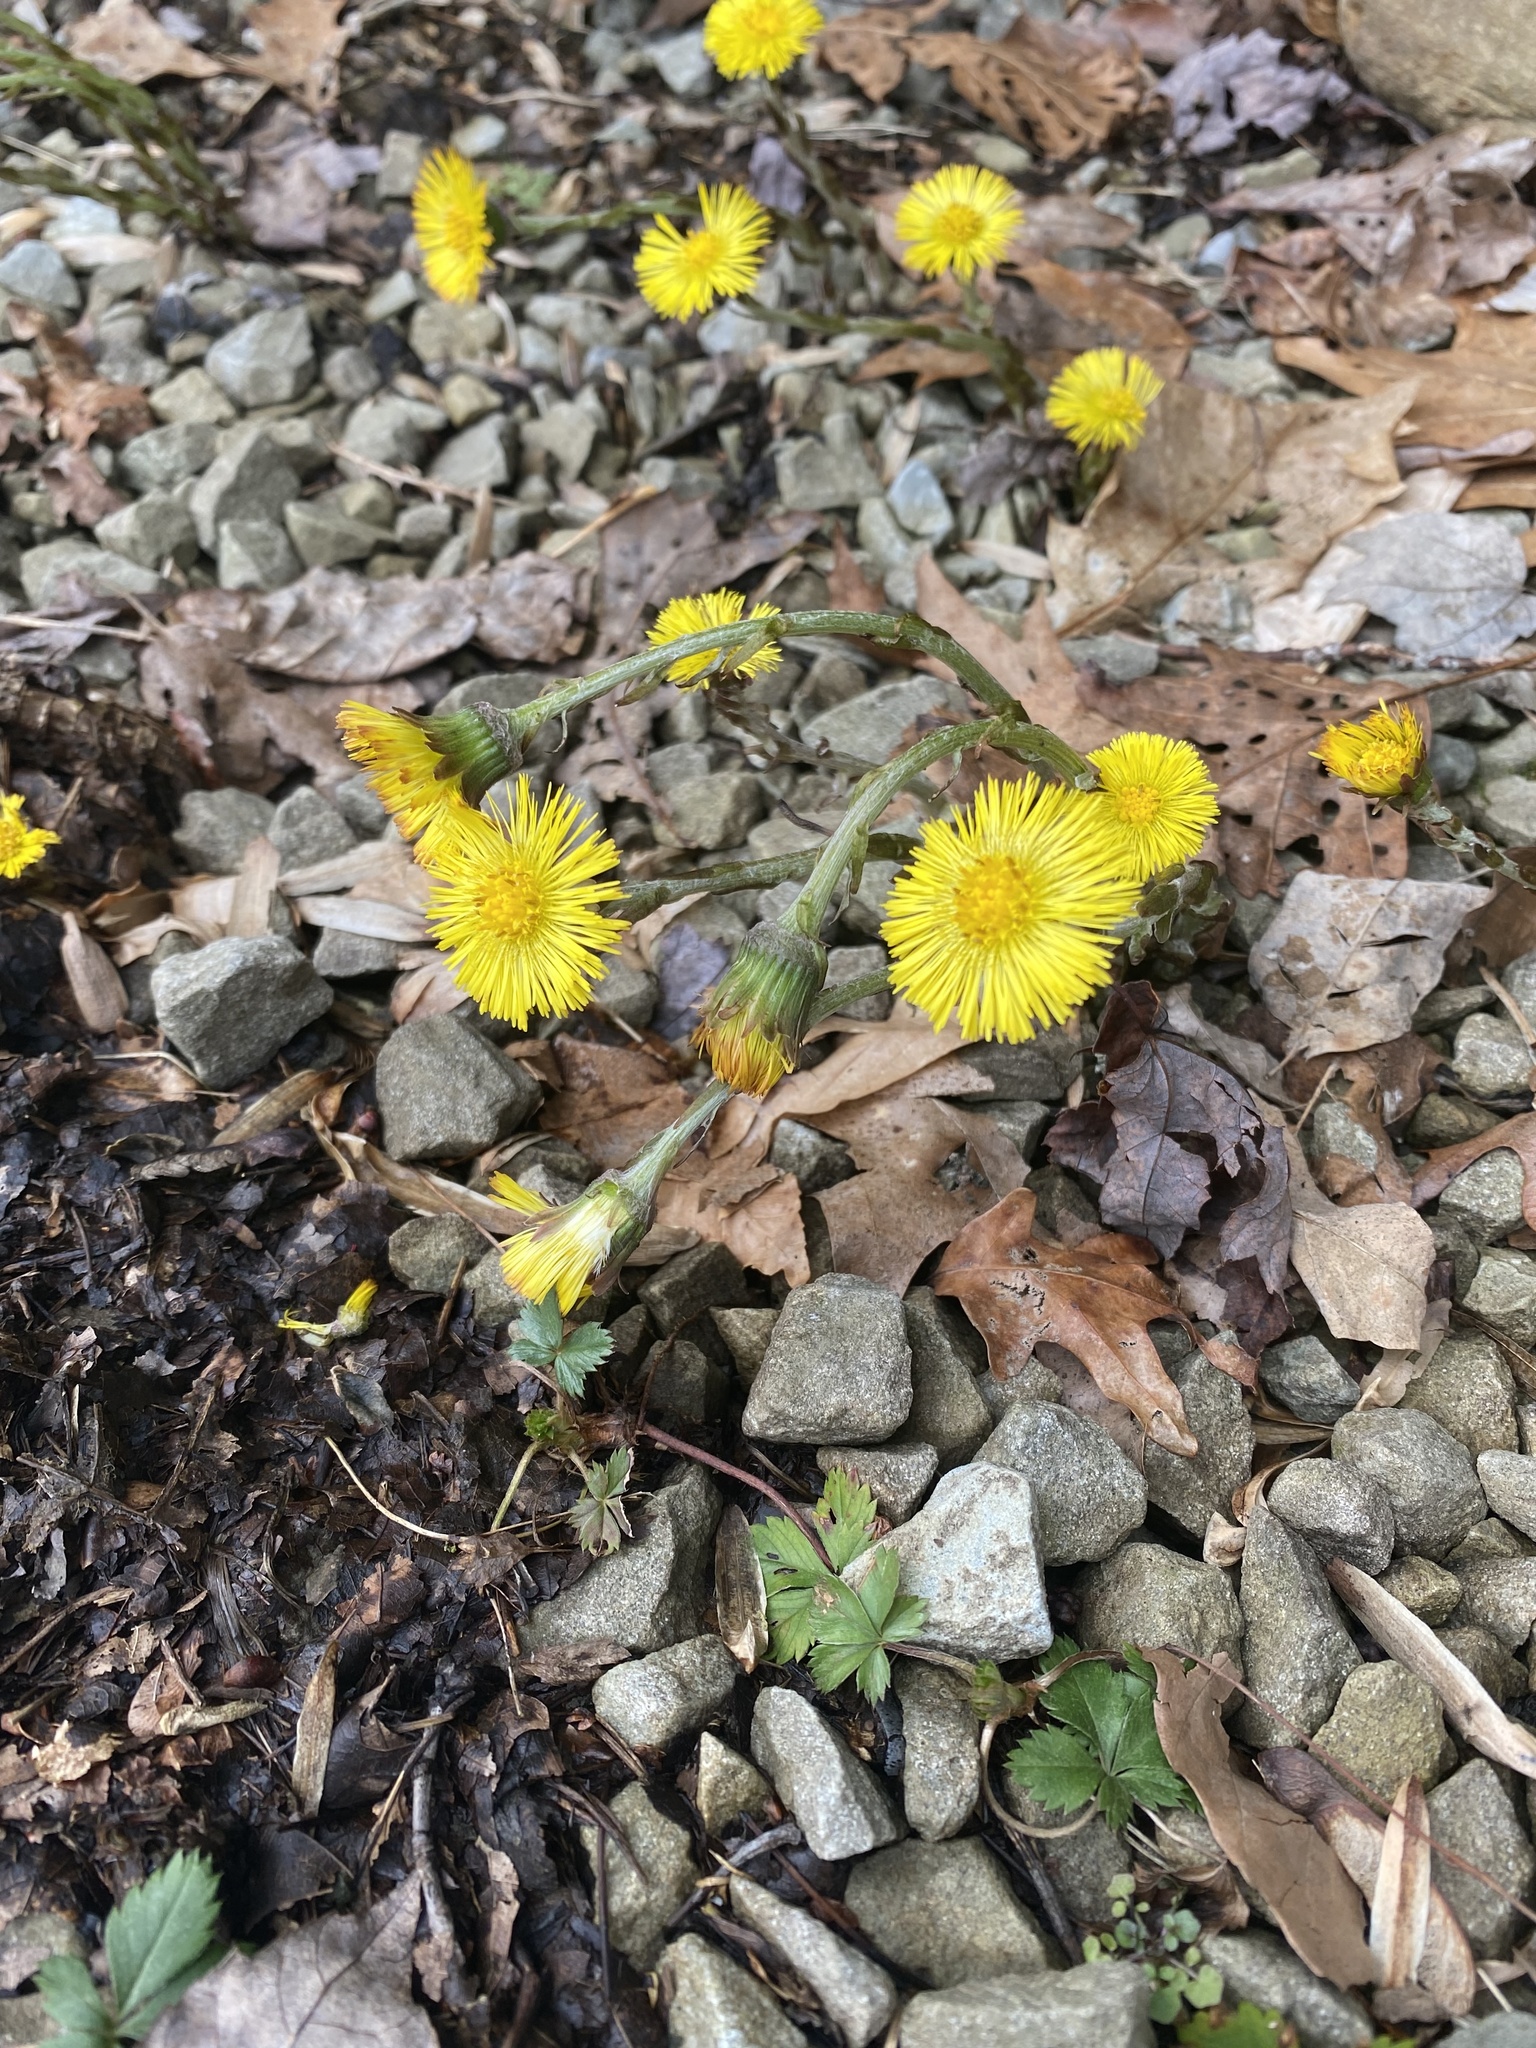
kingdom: Plantae
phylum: Tracheophyta
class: Magnoliopsida
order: Asterales
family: Asteraceae
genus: Tussilago
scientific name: Tussilago farfara
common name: Coltsfoot
